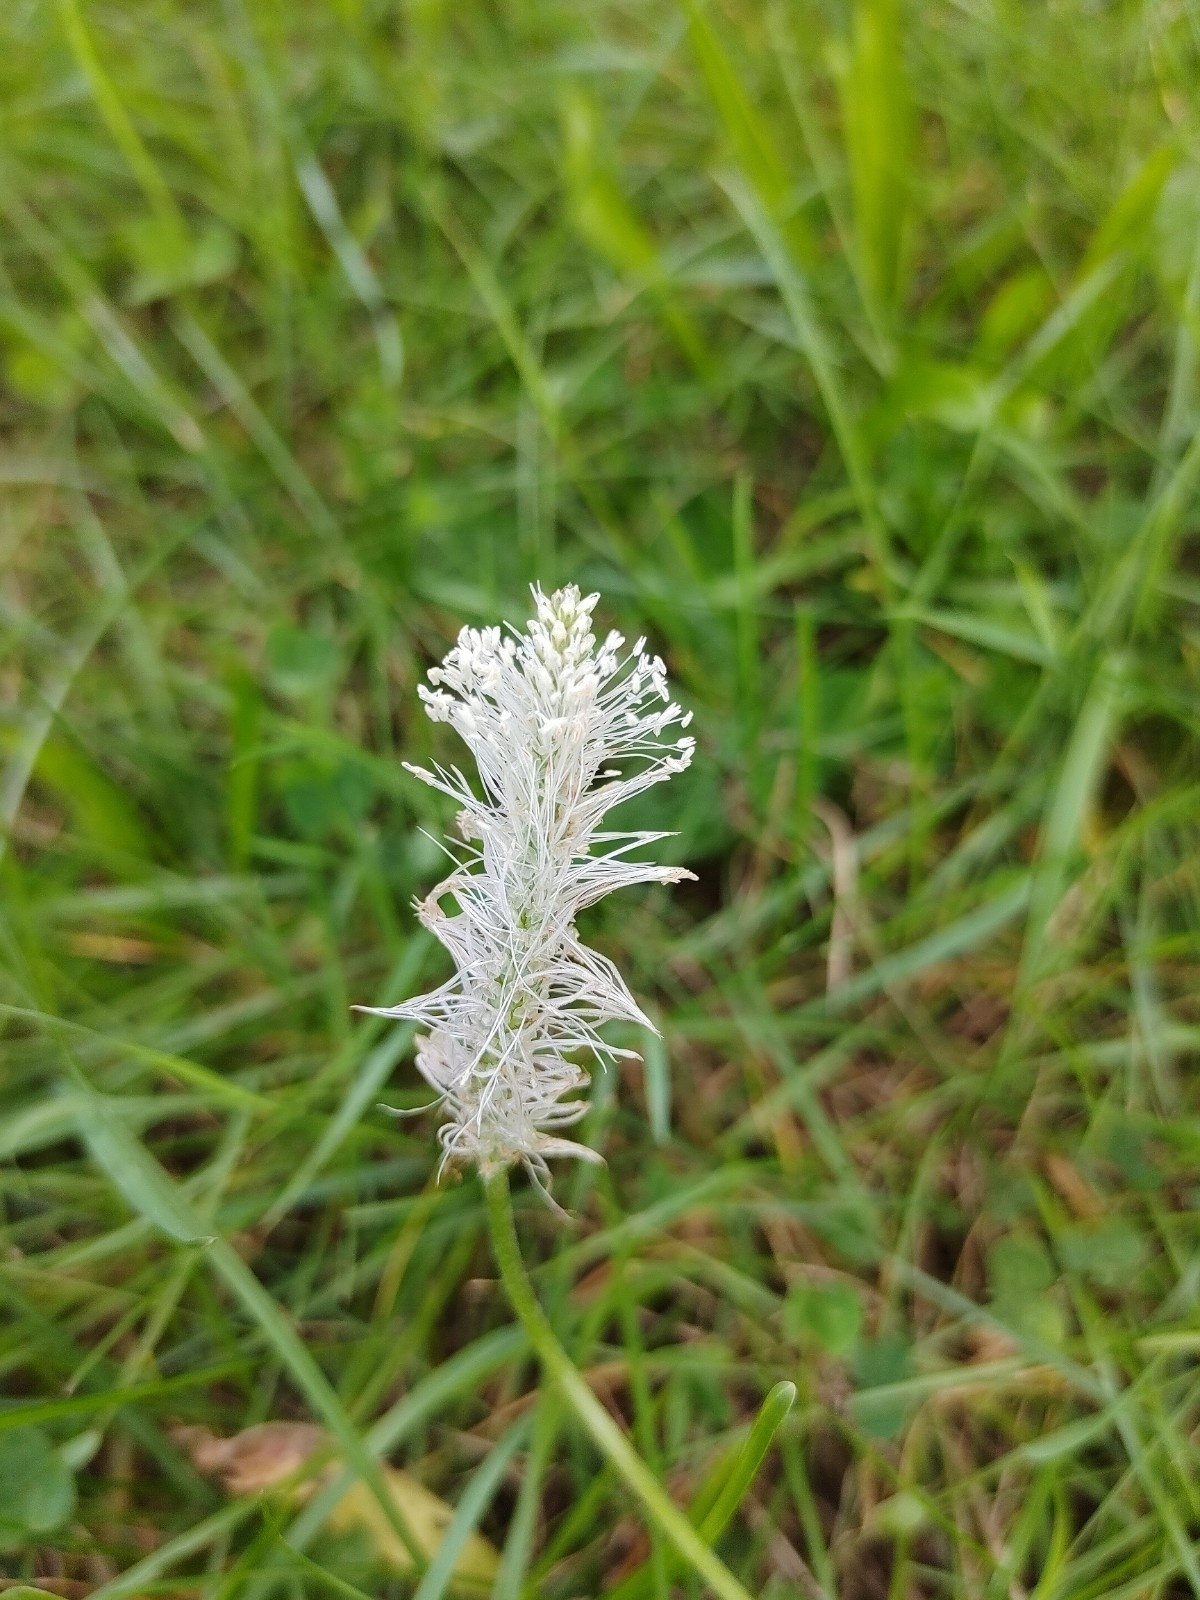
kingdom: Plantae
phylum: Tracheophyta
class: Magnoliopsida
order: Lamiales
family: Plantaginaceae
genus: Plantago
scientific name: Plantago media
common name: Hoary plantain
